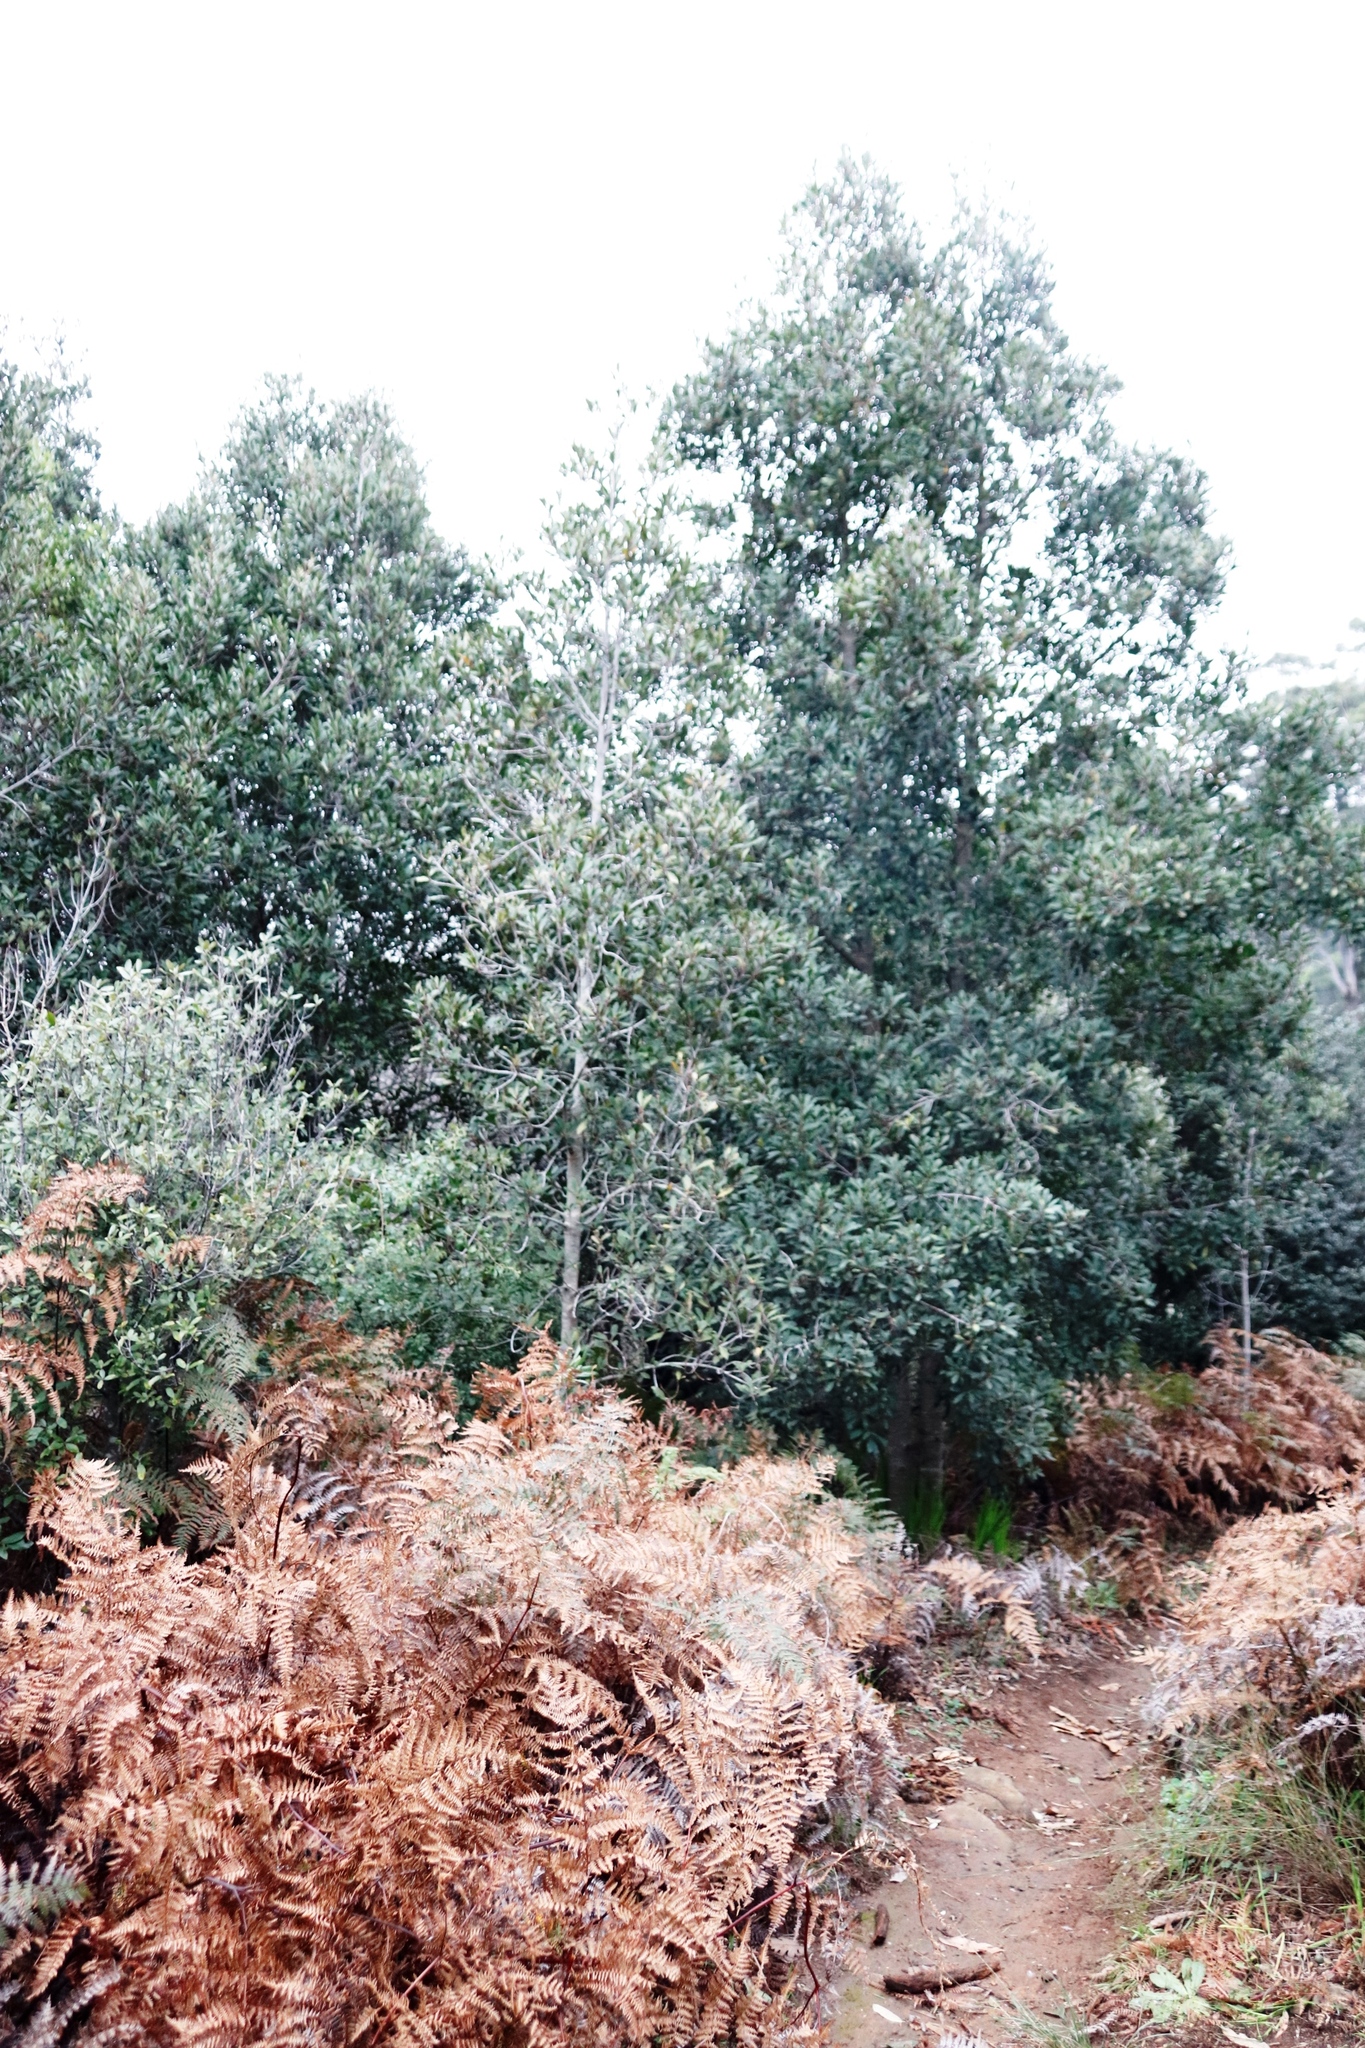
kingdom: Plantae
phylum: Tracheophyta
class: Magnoliopsida
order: Ericales
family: Primulaceae
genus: Myrsine
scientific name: Myrsine melanophloeos
